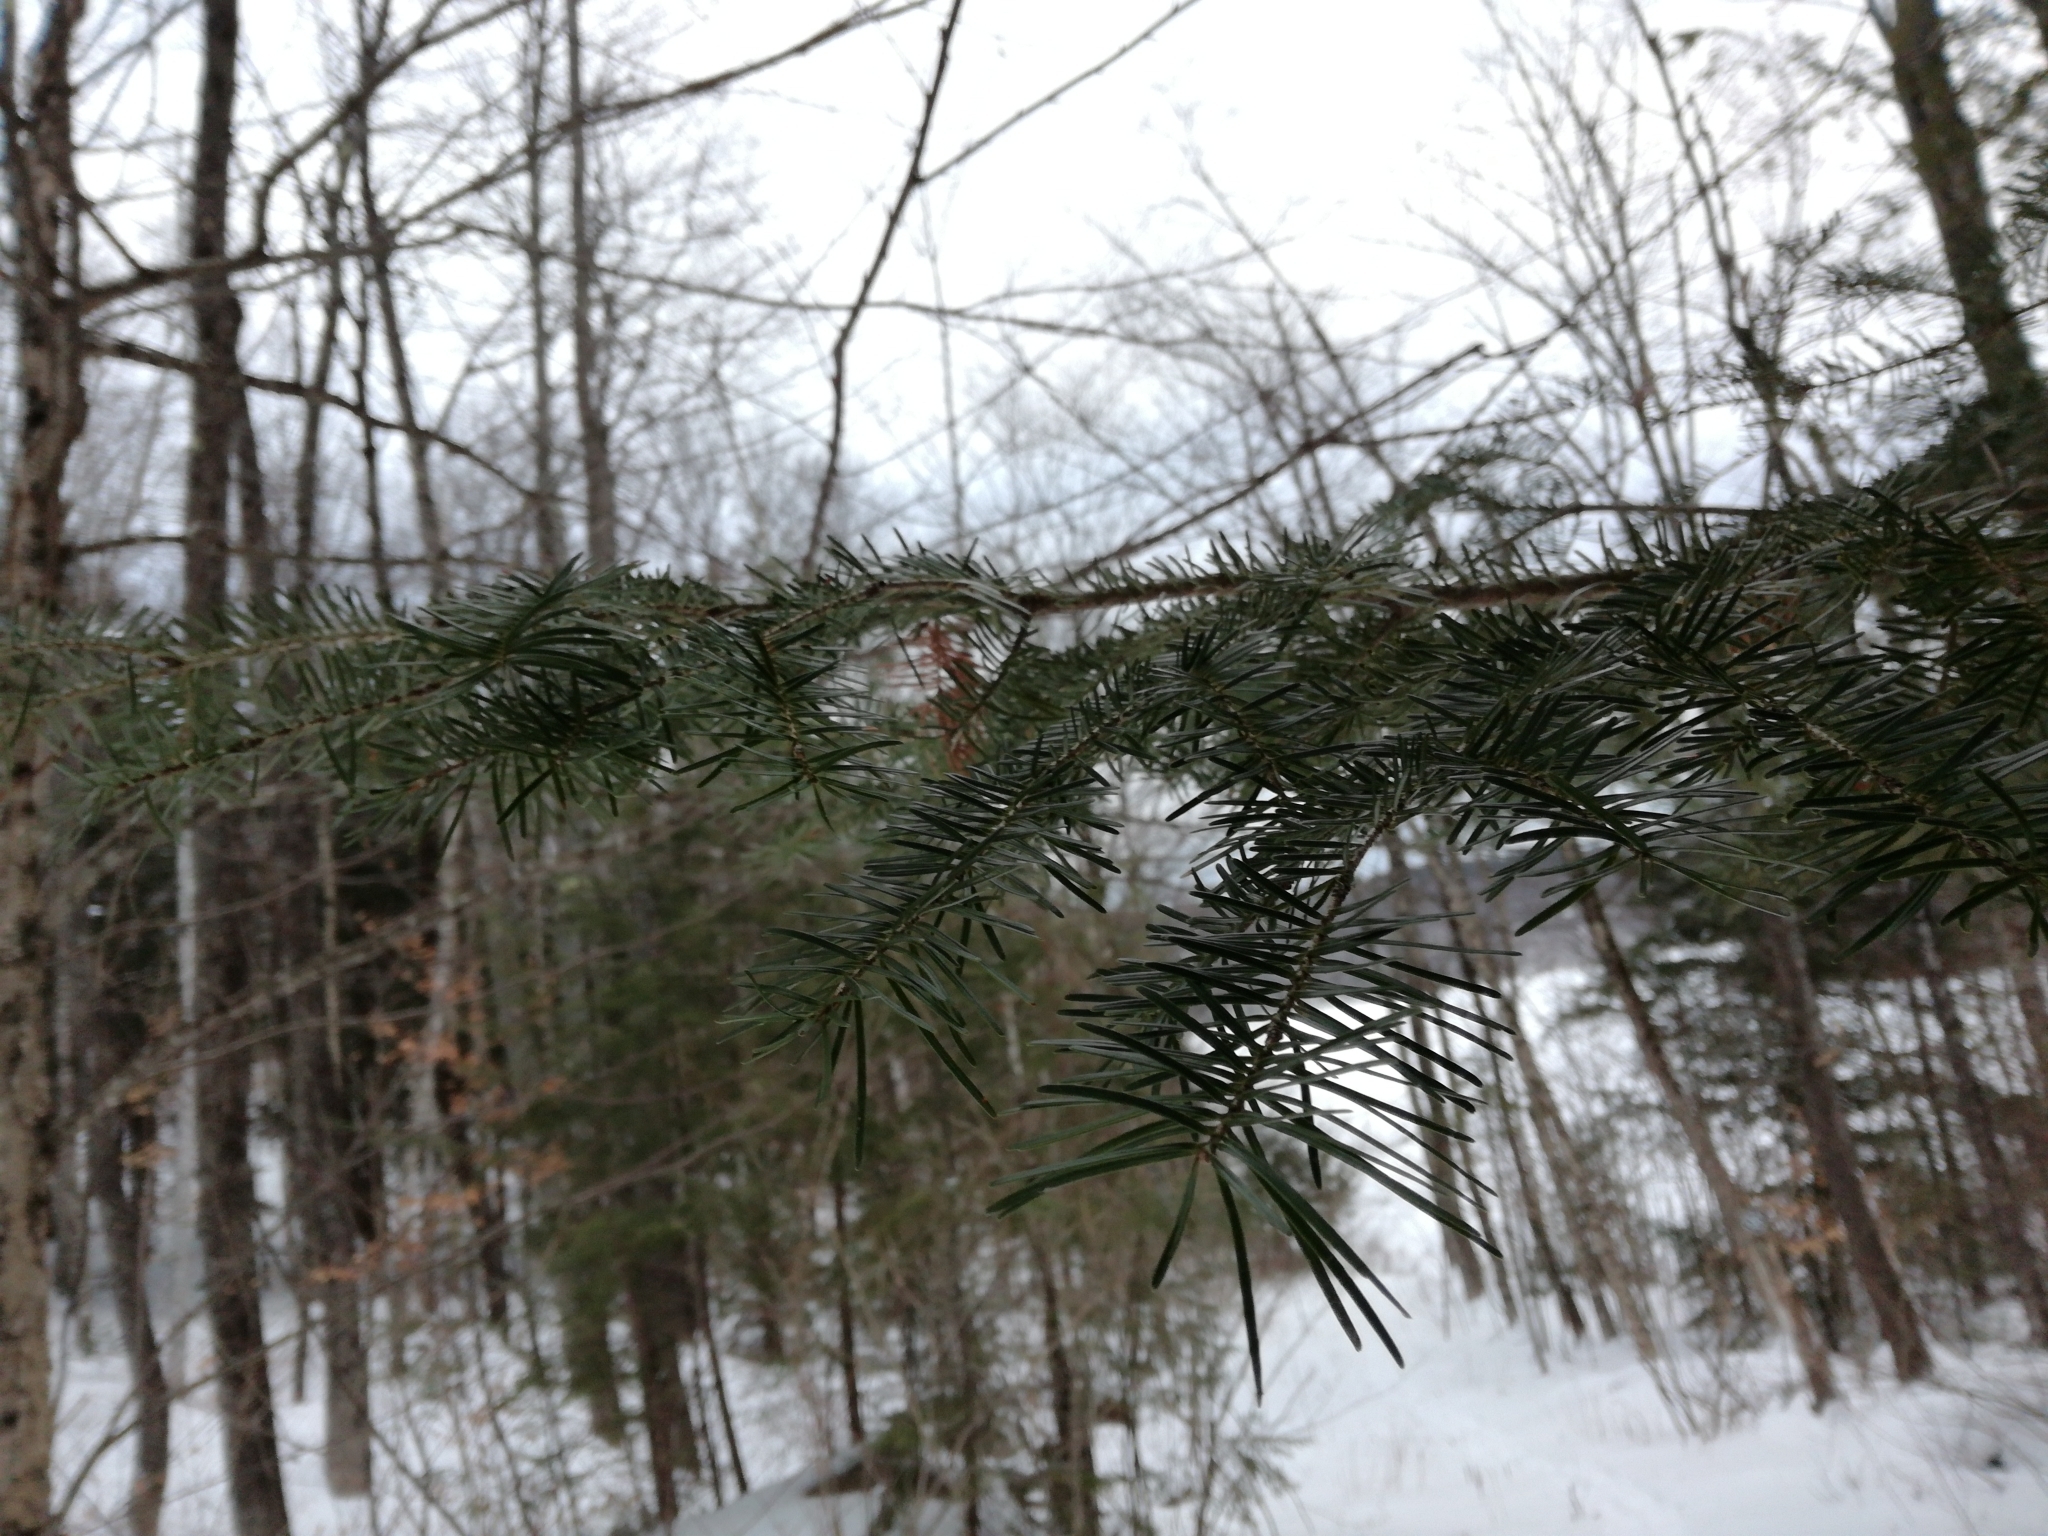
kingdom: Plantae
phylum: Tracheophyta
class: Pinopsida
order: Pinales
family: Pinaceae
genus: Abies
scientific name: Abies balsamea
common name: Balsam fir
